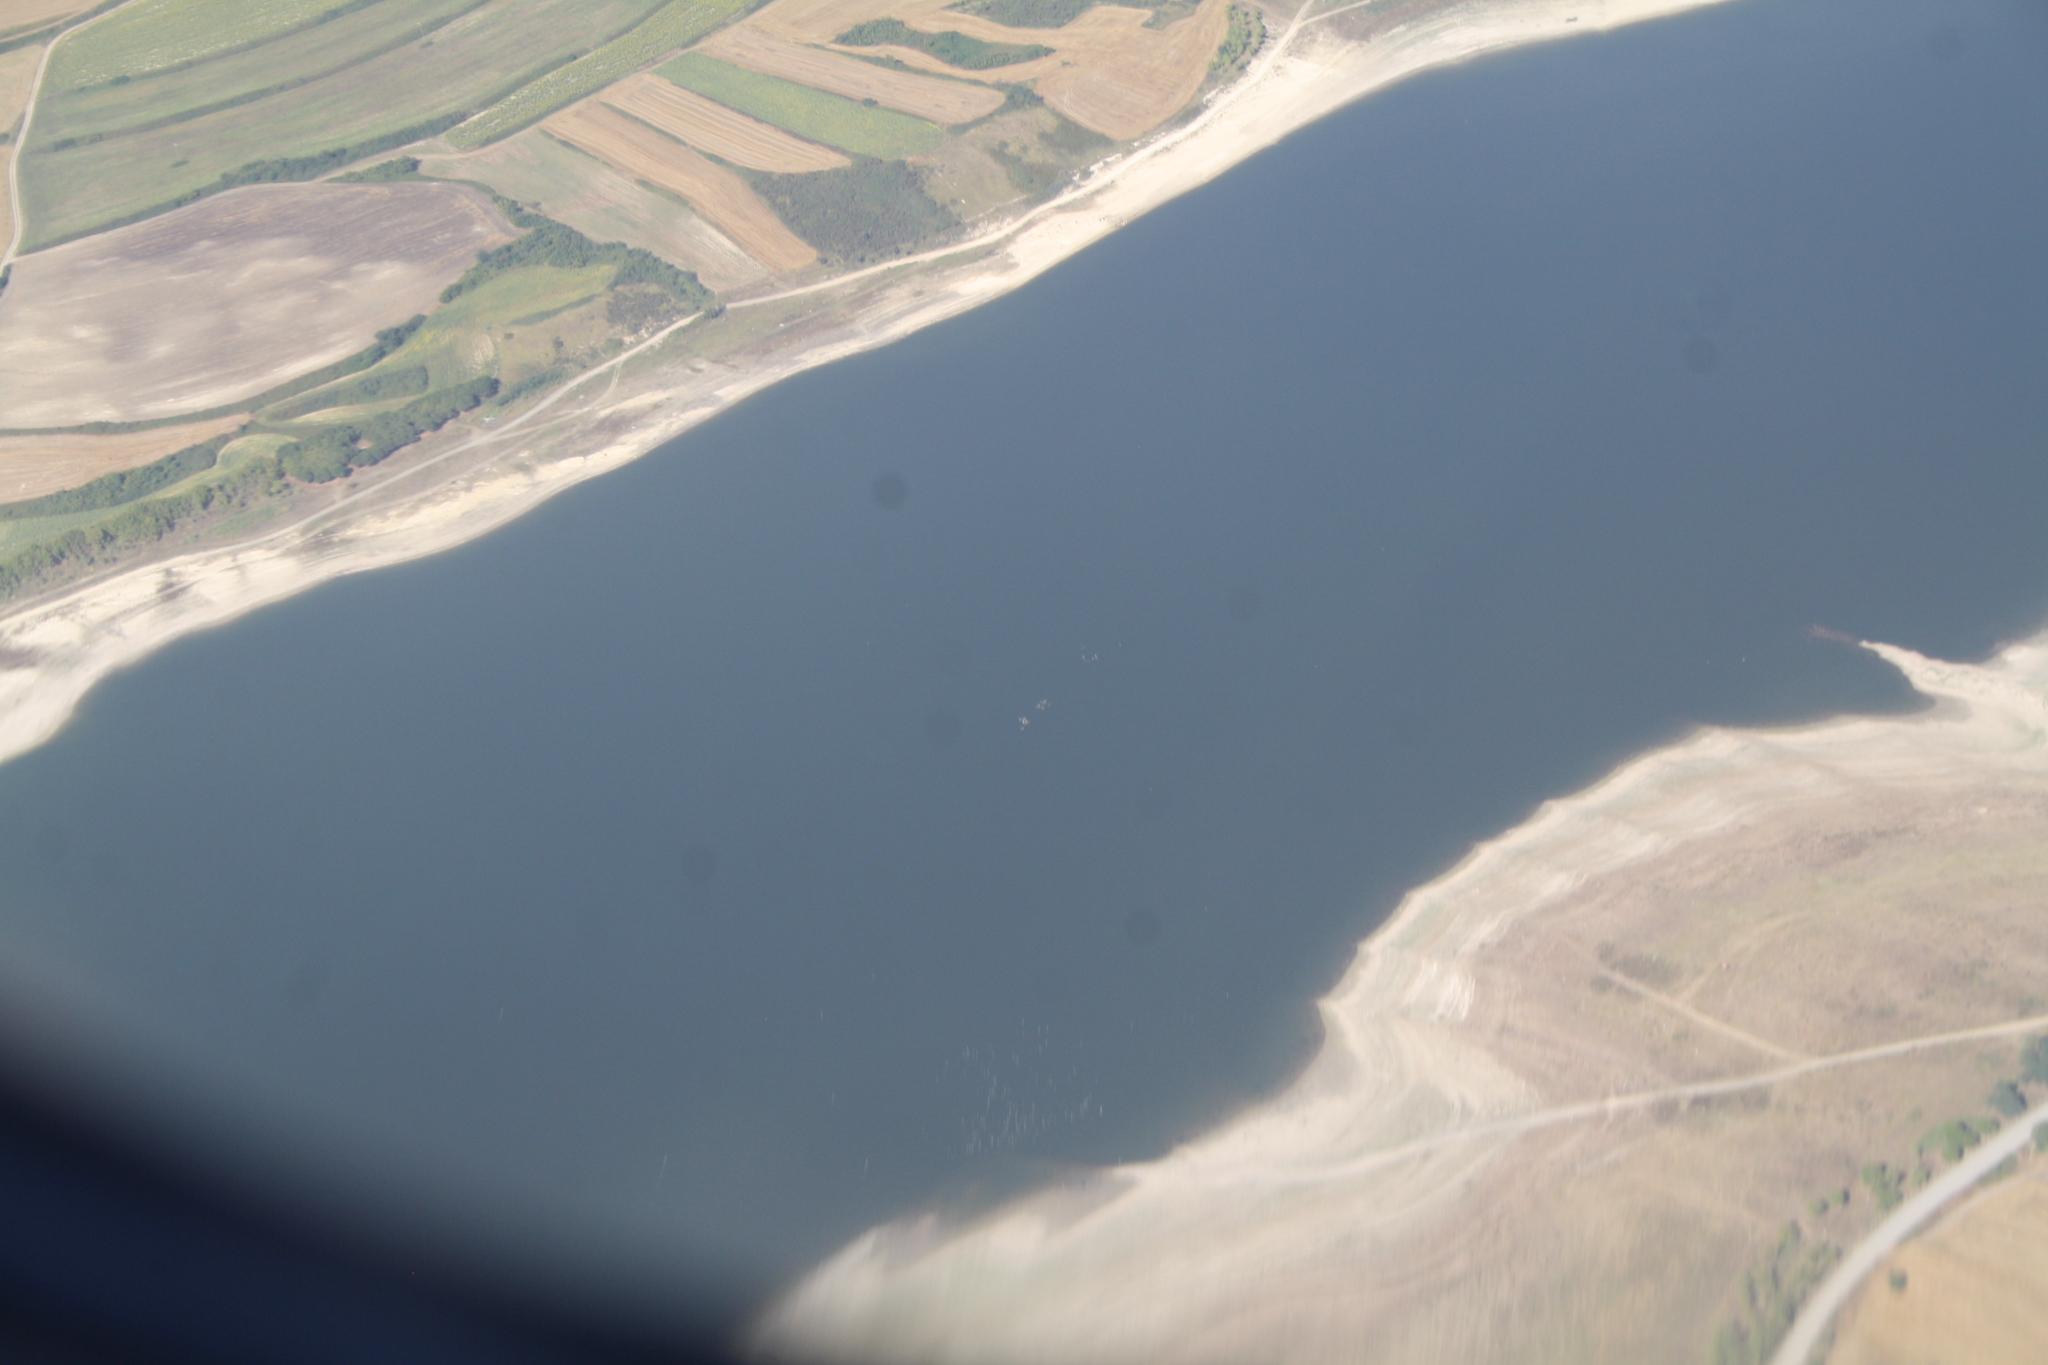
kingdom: Animalia
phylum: Chordata
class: Aves
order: Phoenicopteriformes
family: Phoenicopteridae
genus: Phoenicopterus
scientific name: Phoenicopterus roseus
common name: Greater flamingo
